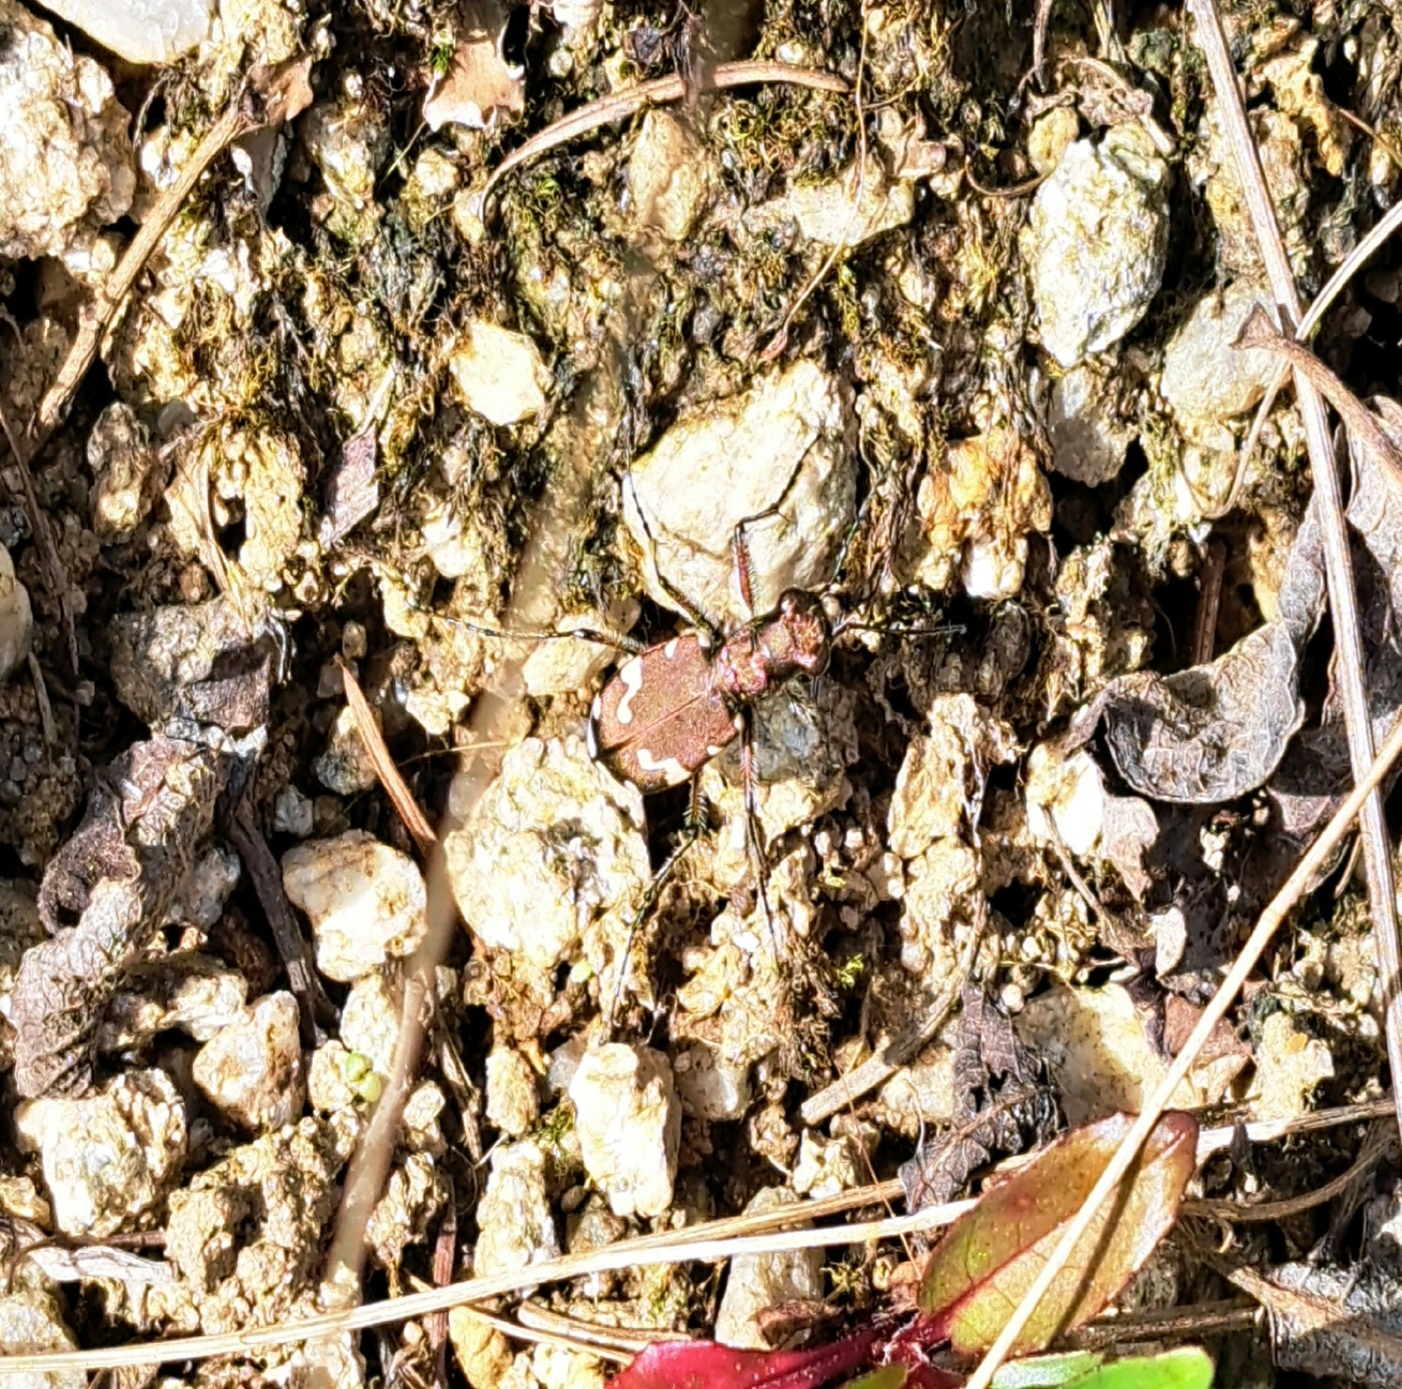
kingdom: Animalia
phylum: Arthropoda
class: Insecta
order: Coleoptera
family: Carabidae
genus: Cicindela
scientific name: Cicindela sylvicola
